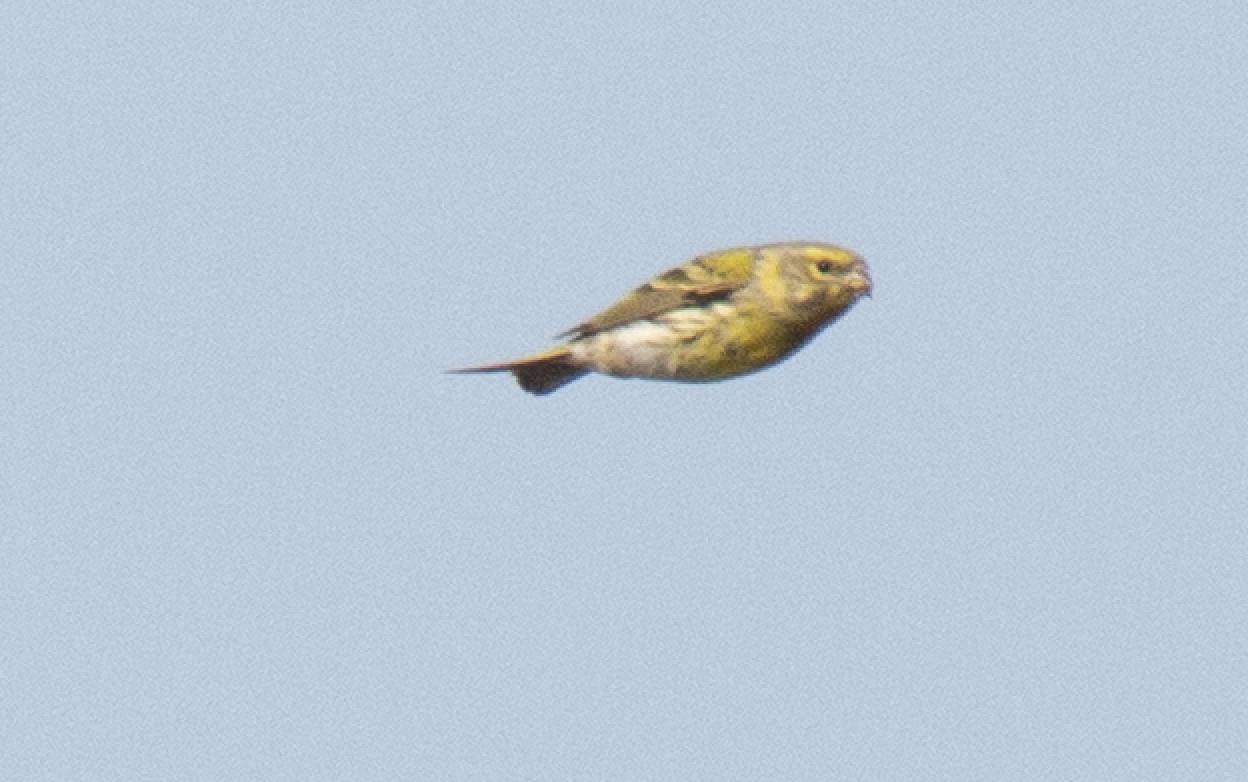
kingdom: Animalia
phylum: Chordata
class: Aves
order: Passeriformes
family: Fringillidae
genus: Serinus
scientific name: Serinus serinus
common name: European serin
